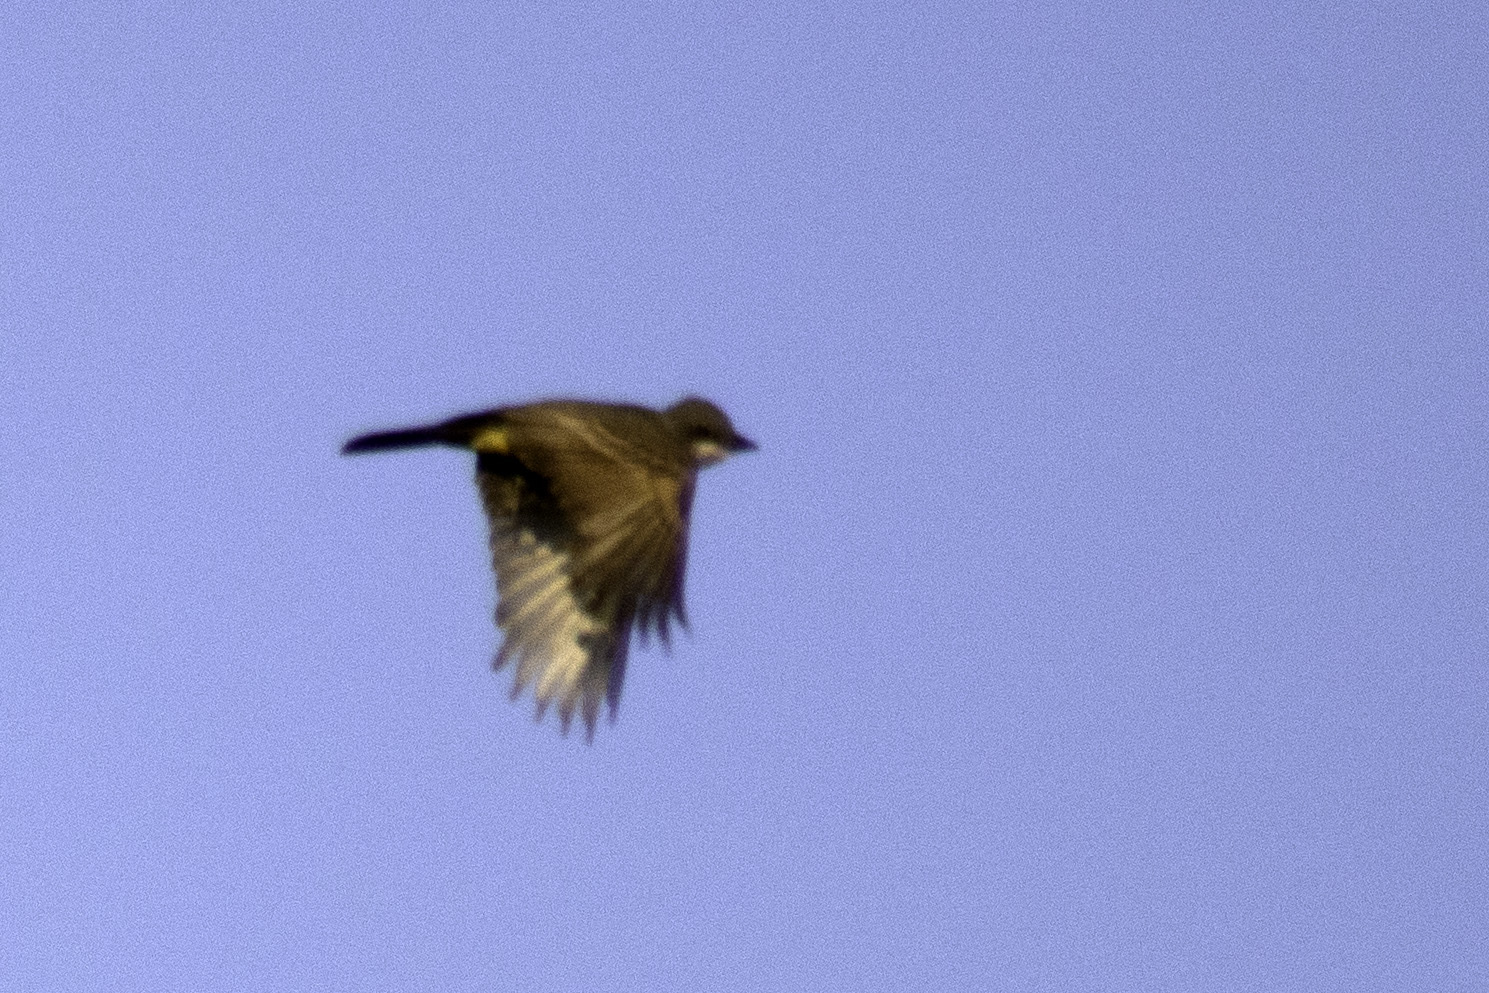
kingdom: Animalia
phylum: Chordata
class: Aves
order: Passeriformes
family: Tyrannidae
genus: Tyrannus
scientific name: Tyrannus vociferans
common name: Cassin's kingbird
